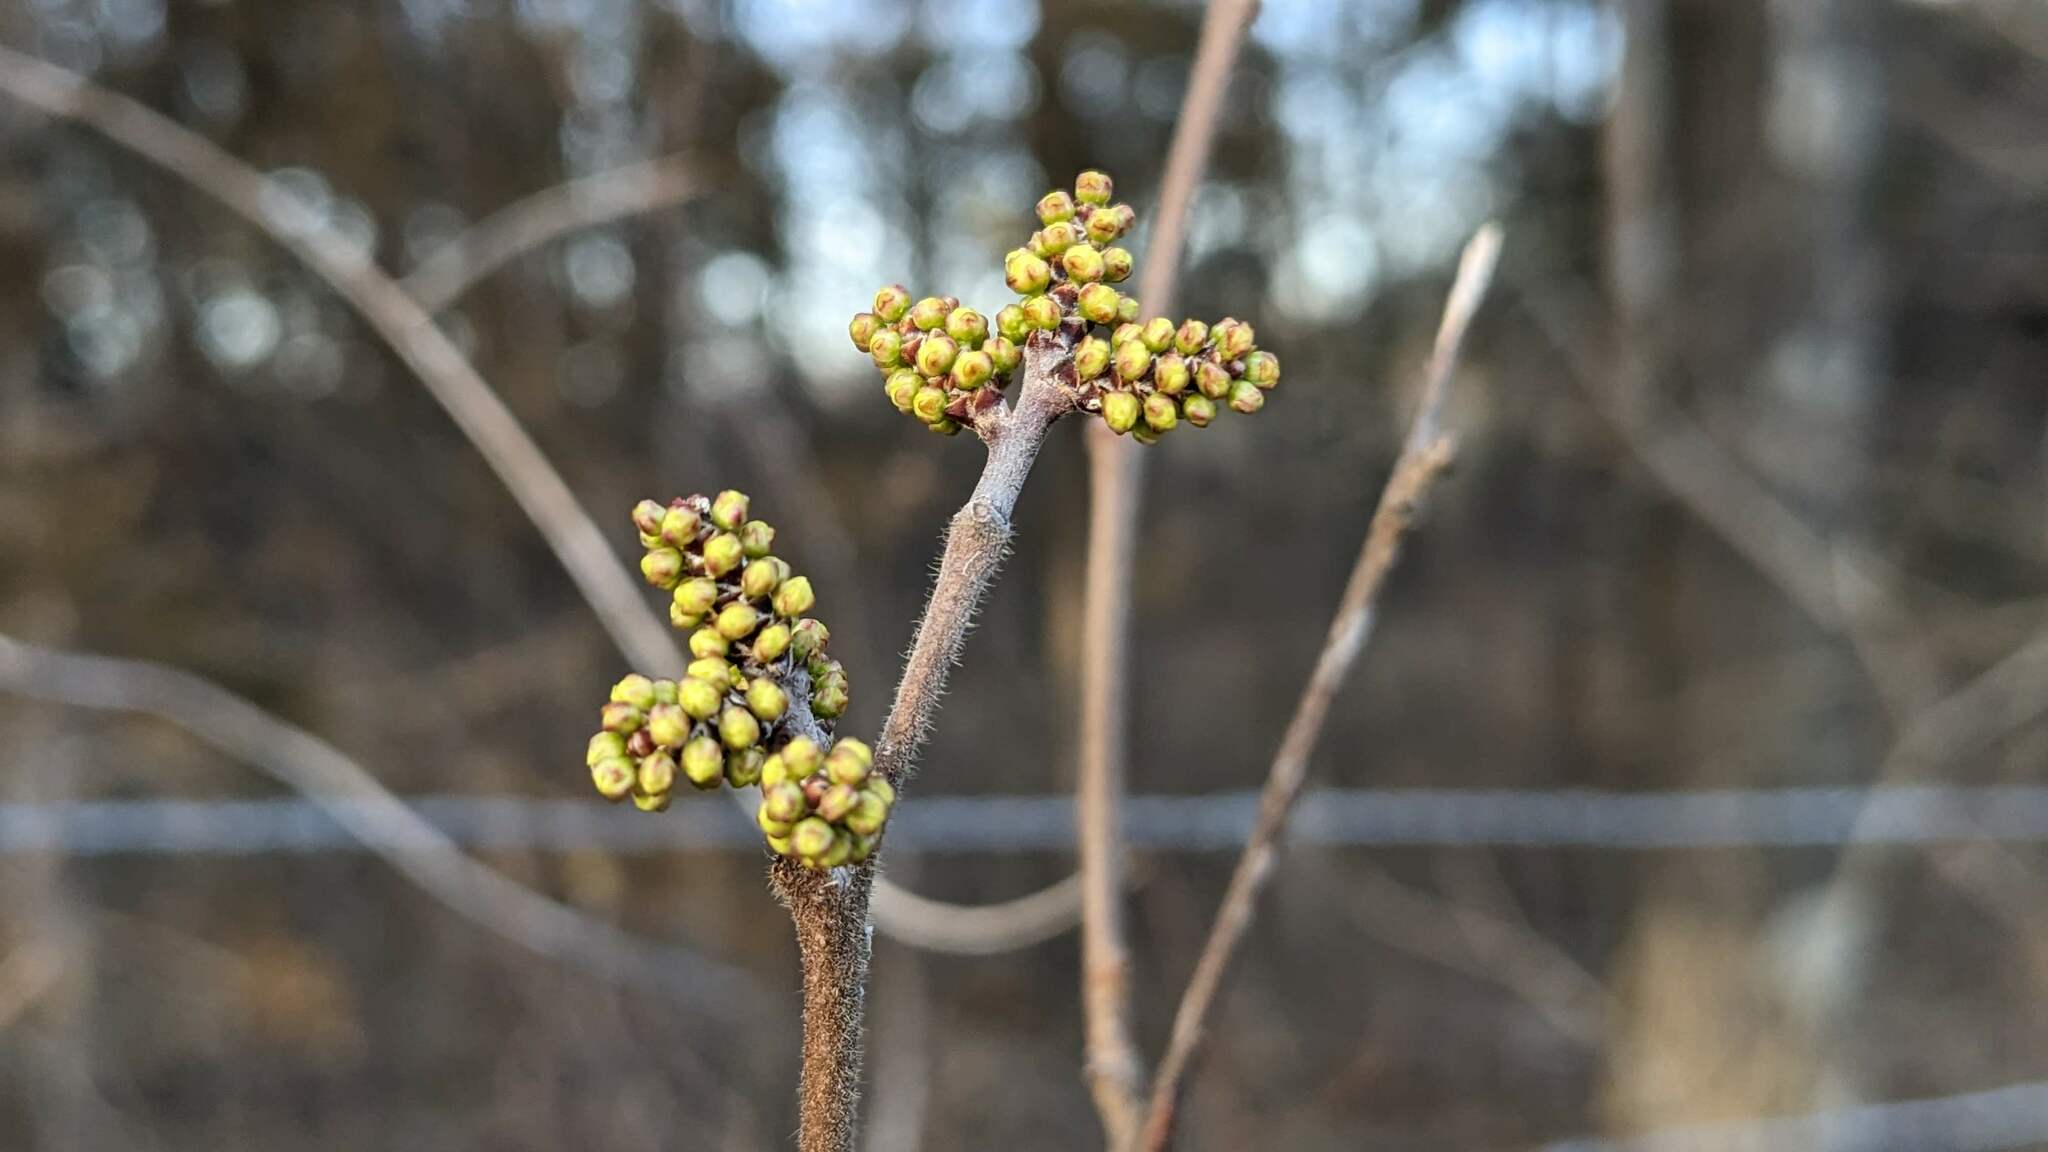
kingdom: Plantae
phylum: Tracheophyta
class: Magnoliopsida
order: Sapindales
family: Anacardiaceae
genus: Rhus
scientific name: Rhus aromatica
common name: Aromatic sumac
